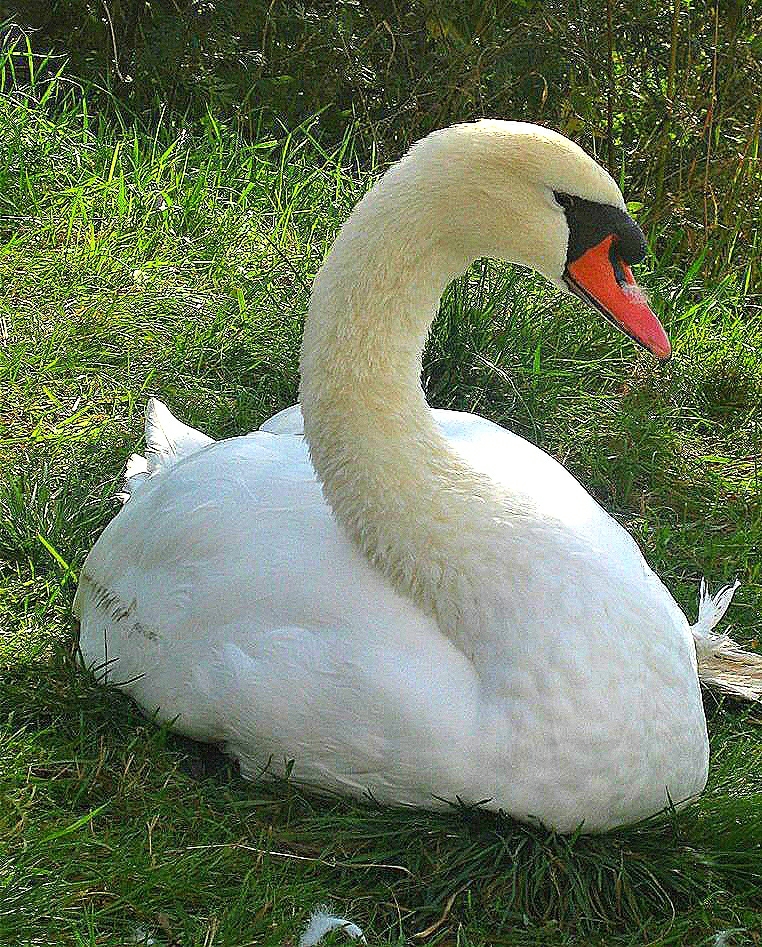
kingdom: Animalia
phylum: Chordata
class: Aves
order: Anseriformes
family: Anatidae
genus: Cygnus
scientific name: Cygnus olor
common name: Mute swan
